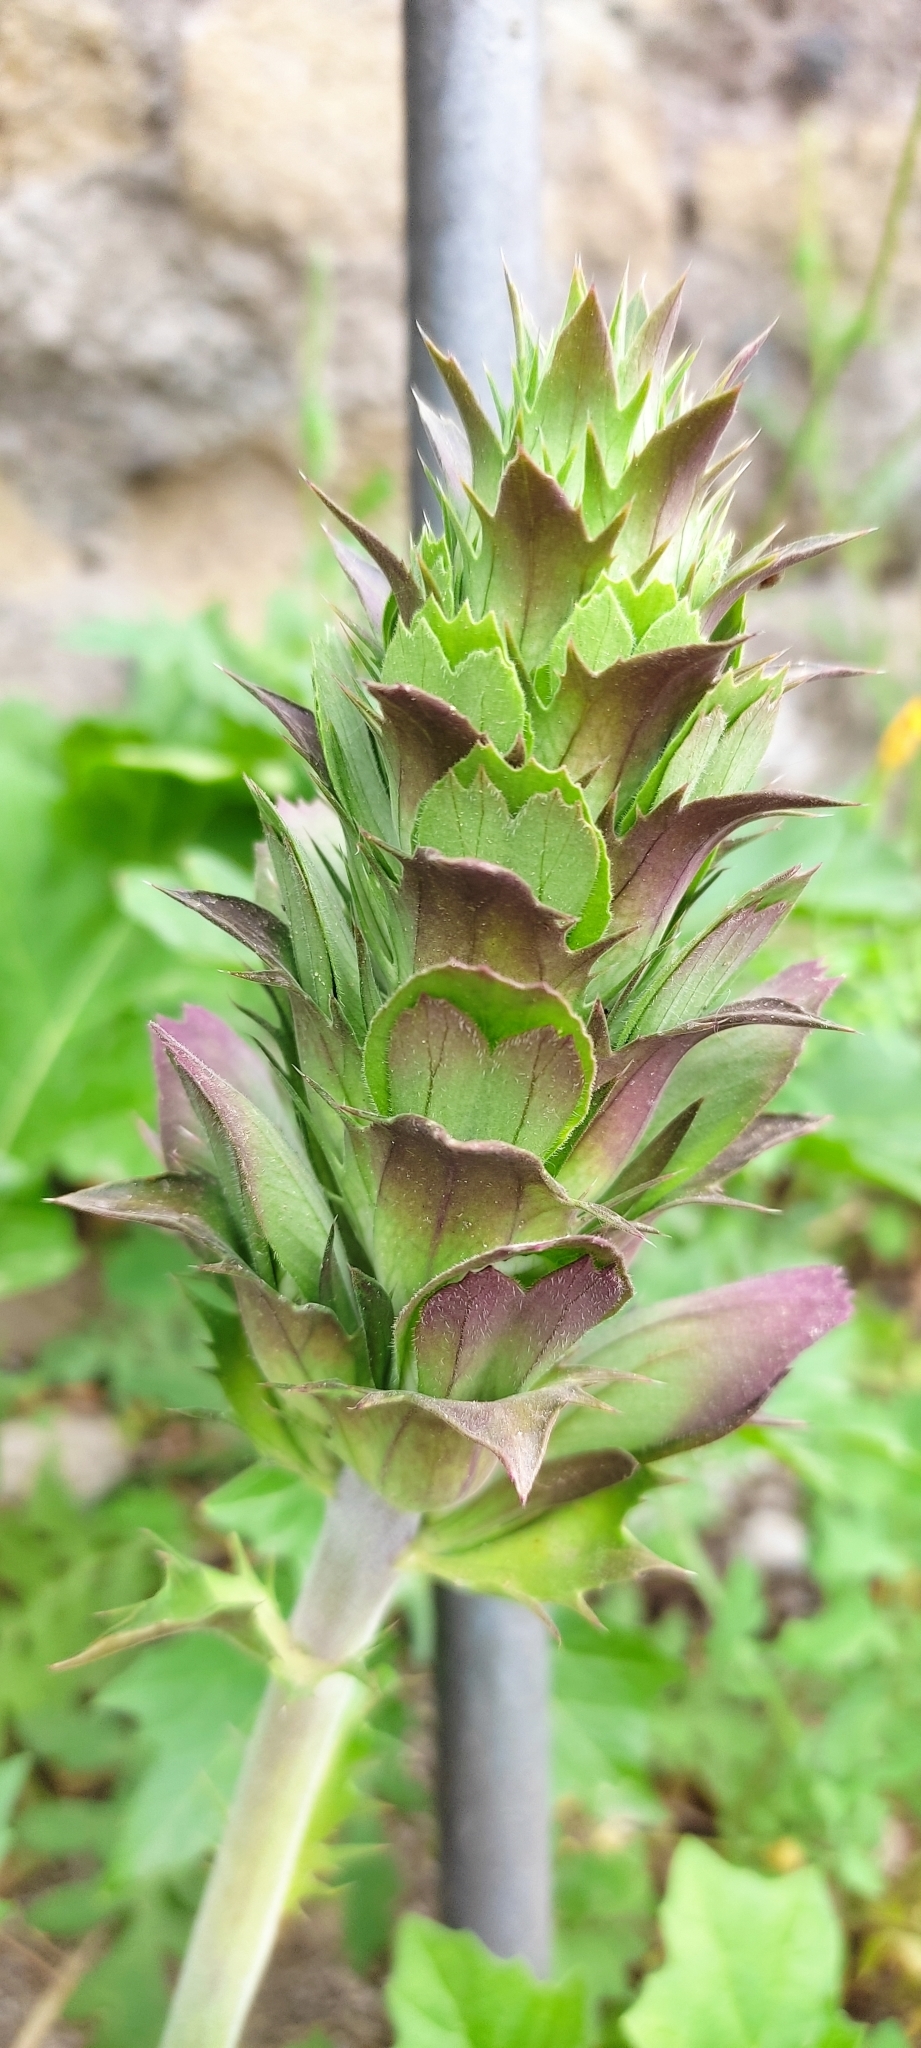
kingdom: Plantae
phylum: Tracheophyta
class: Magnoliopsida
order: Lamiales
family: Acanthaceae
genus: Acanthus
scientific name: Acanthus mollis
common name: Bear's-breech
